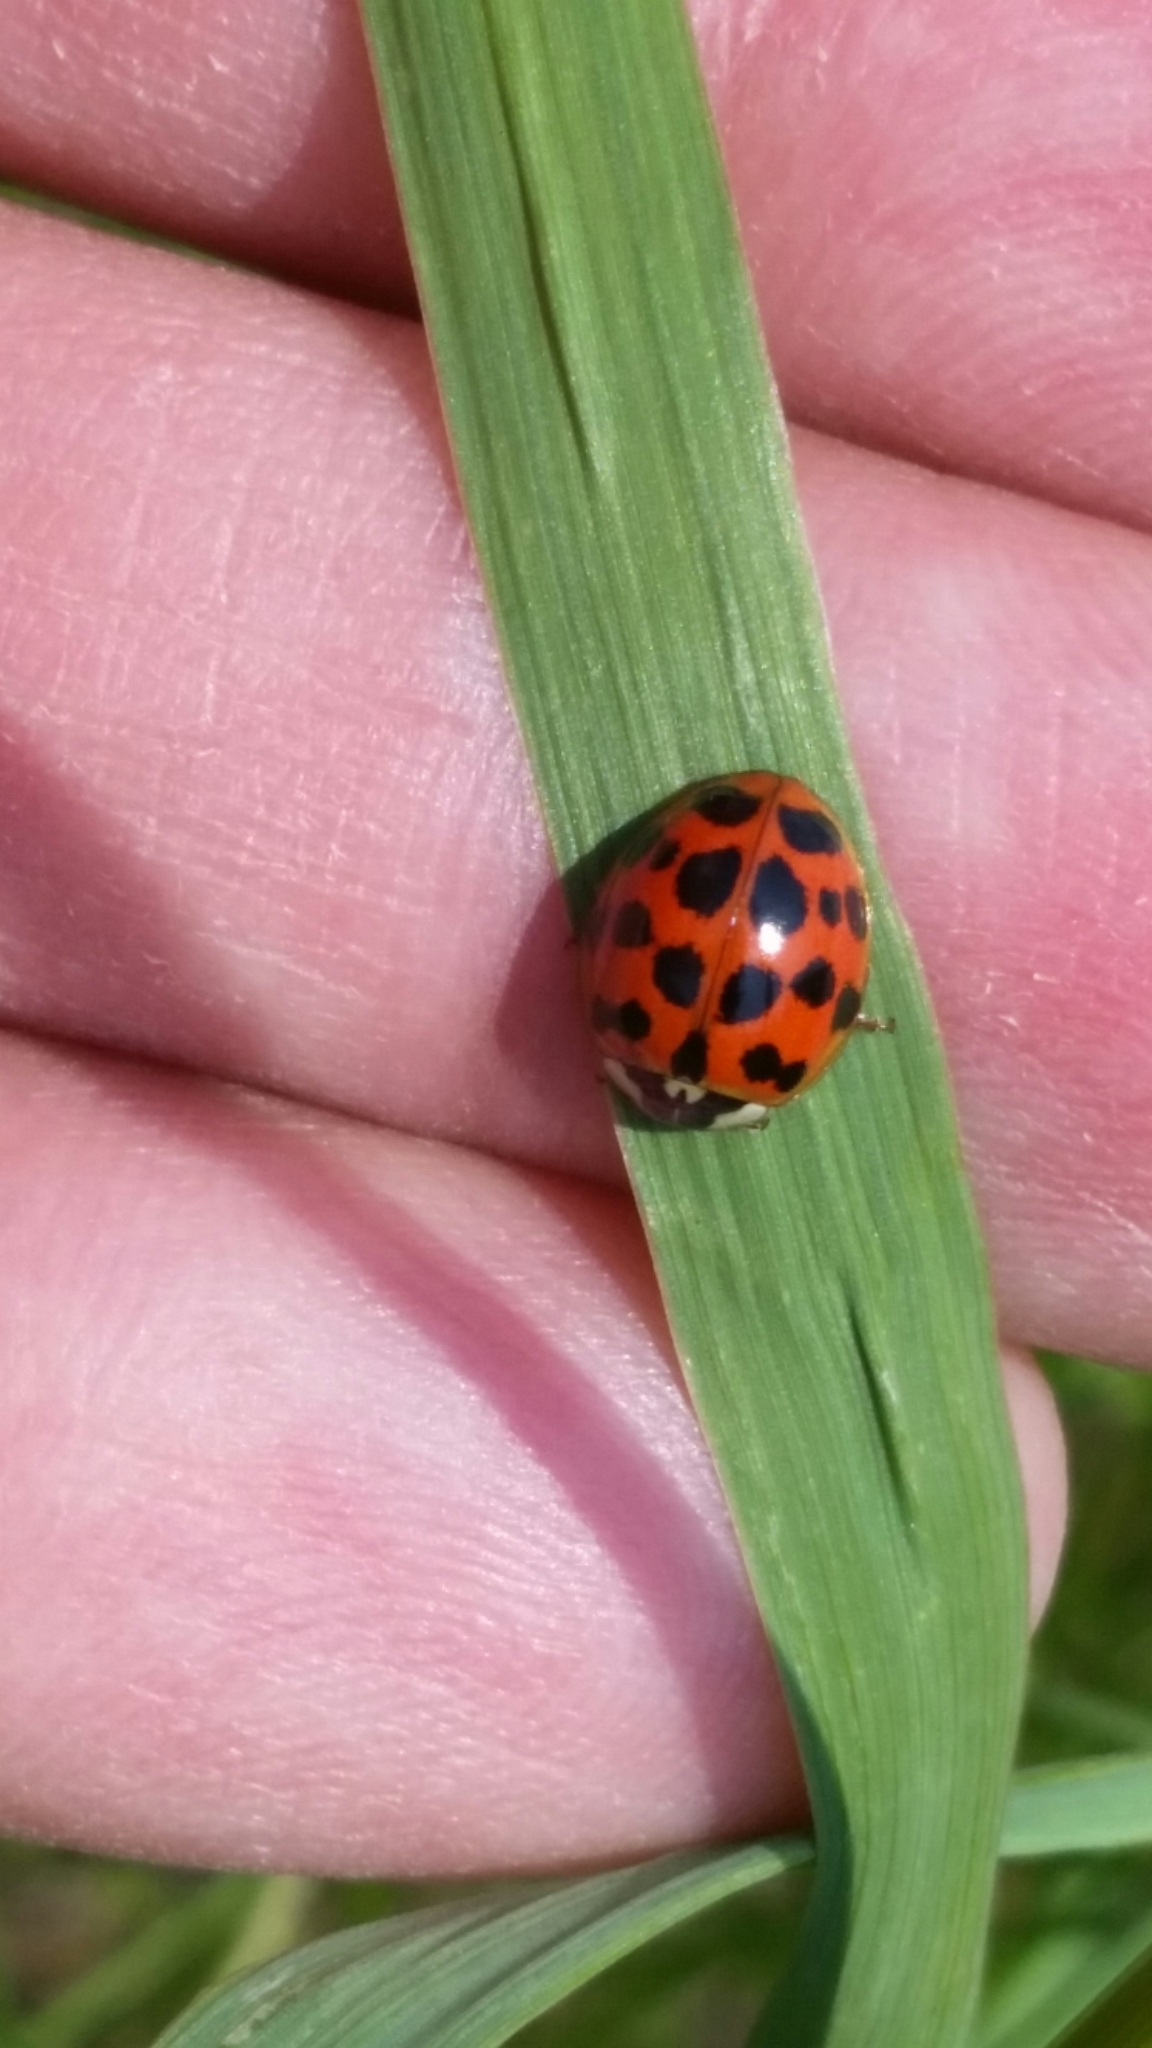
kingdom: Animalia
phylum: Arthropoda
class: Insecta
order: Coleoptera
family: Coccinellidae
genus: Harmonia
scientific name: Harmonia axyridis
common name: Harlequin ladybird
